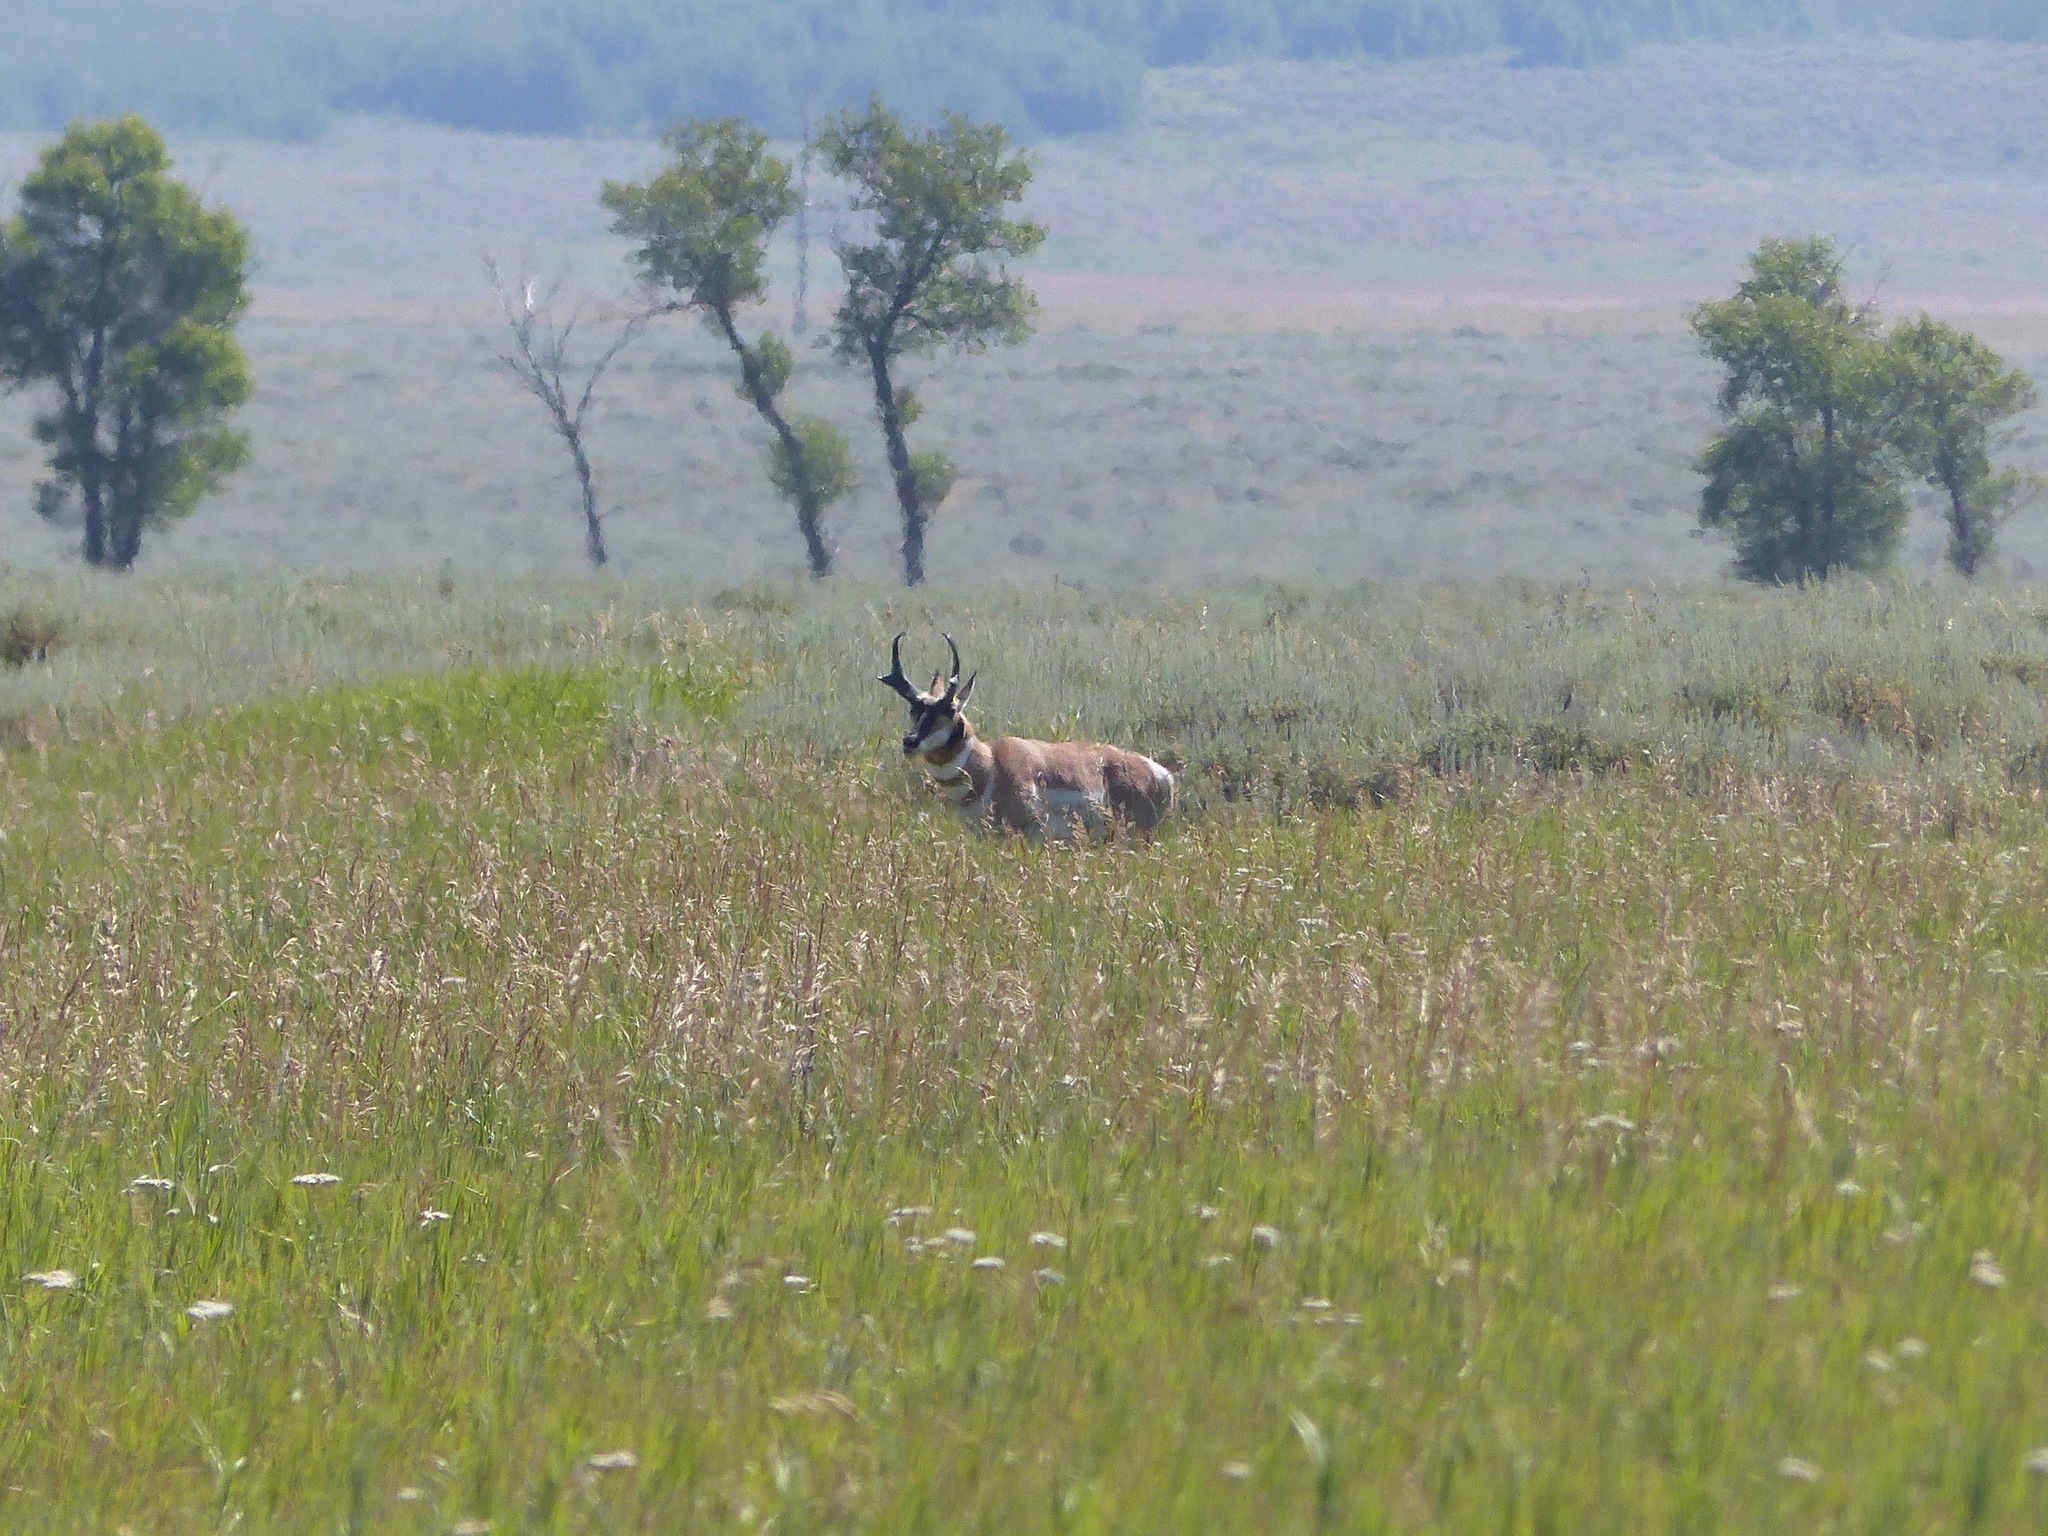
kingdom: Animalia
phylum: Chordata
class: Mammalia
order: Artiodactyla
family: Antilocapridae
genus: Antilocapra
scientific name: Antilocapra americana
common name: Pronghorn
